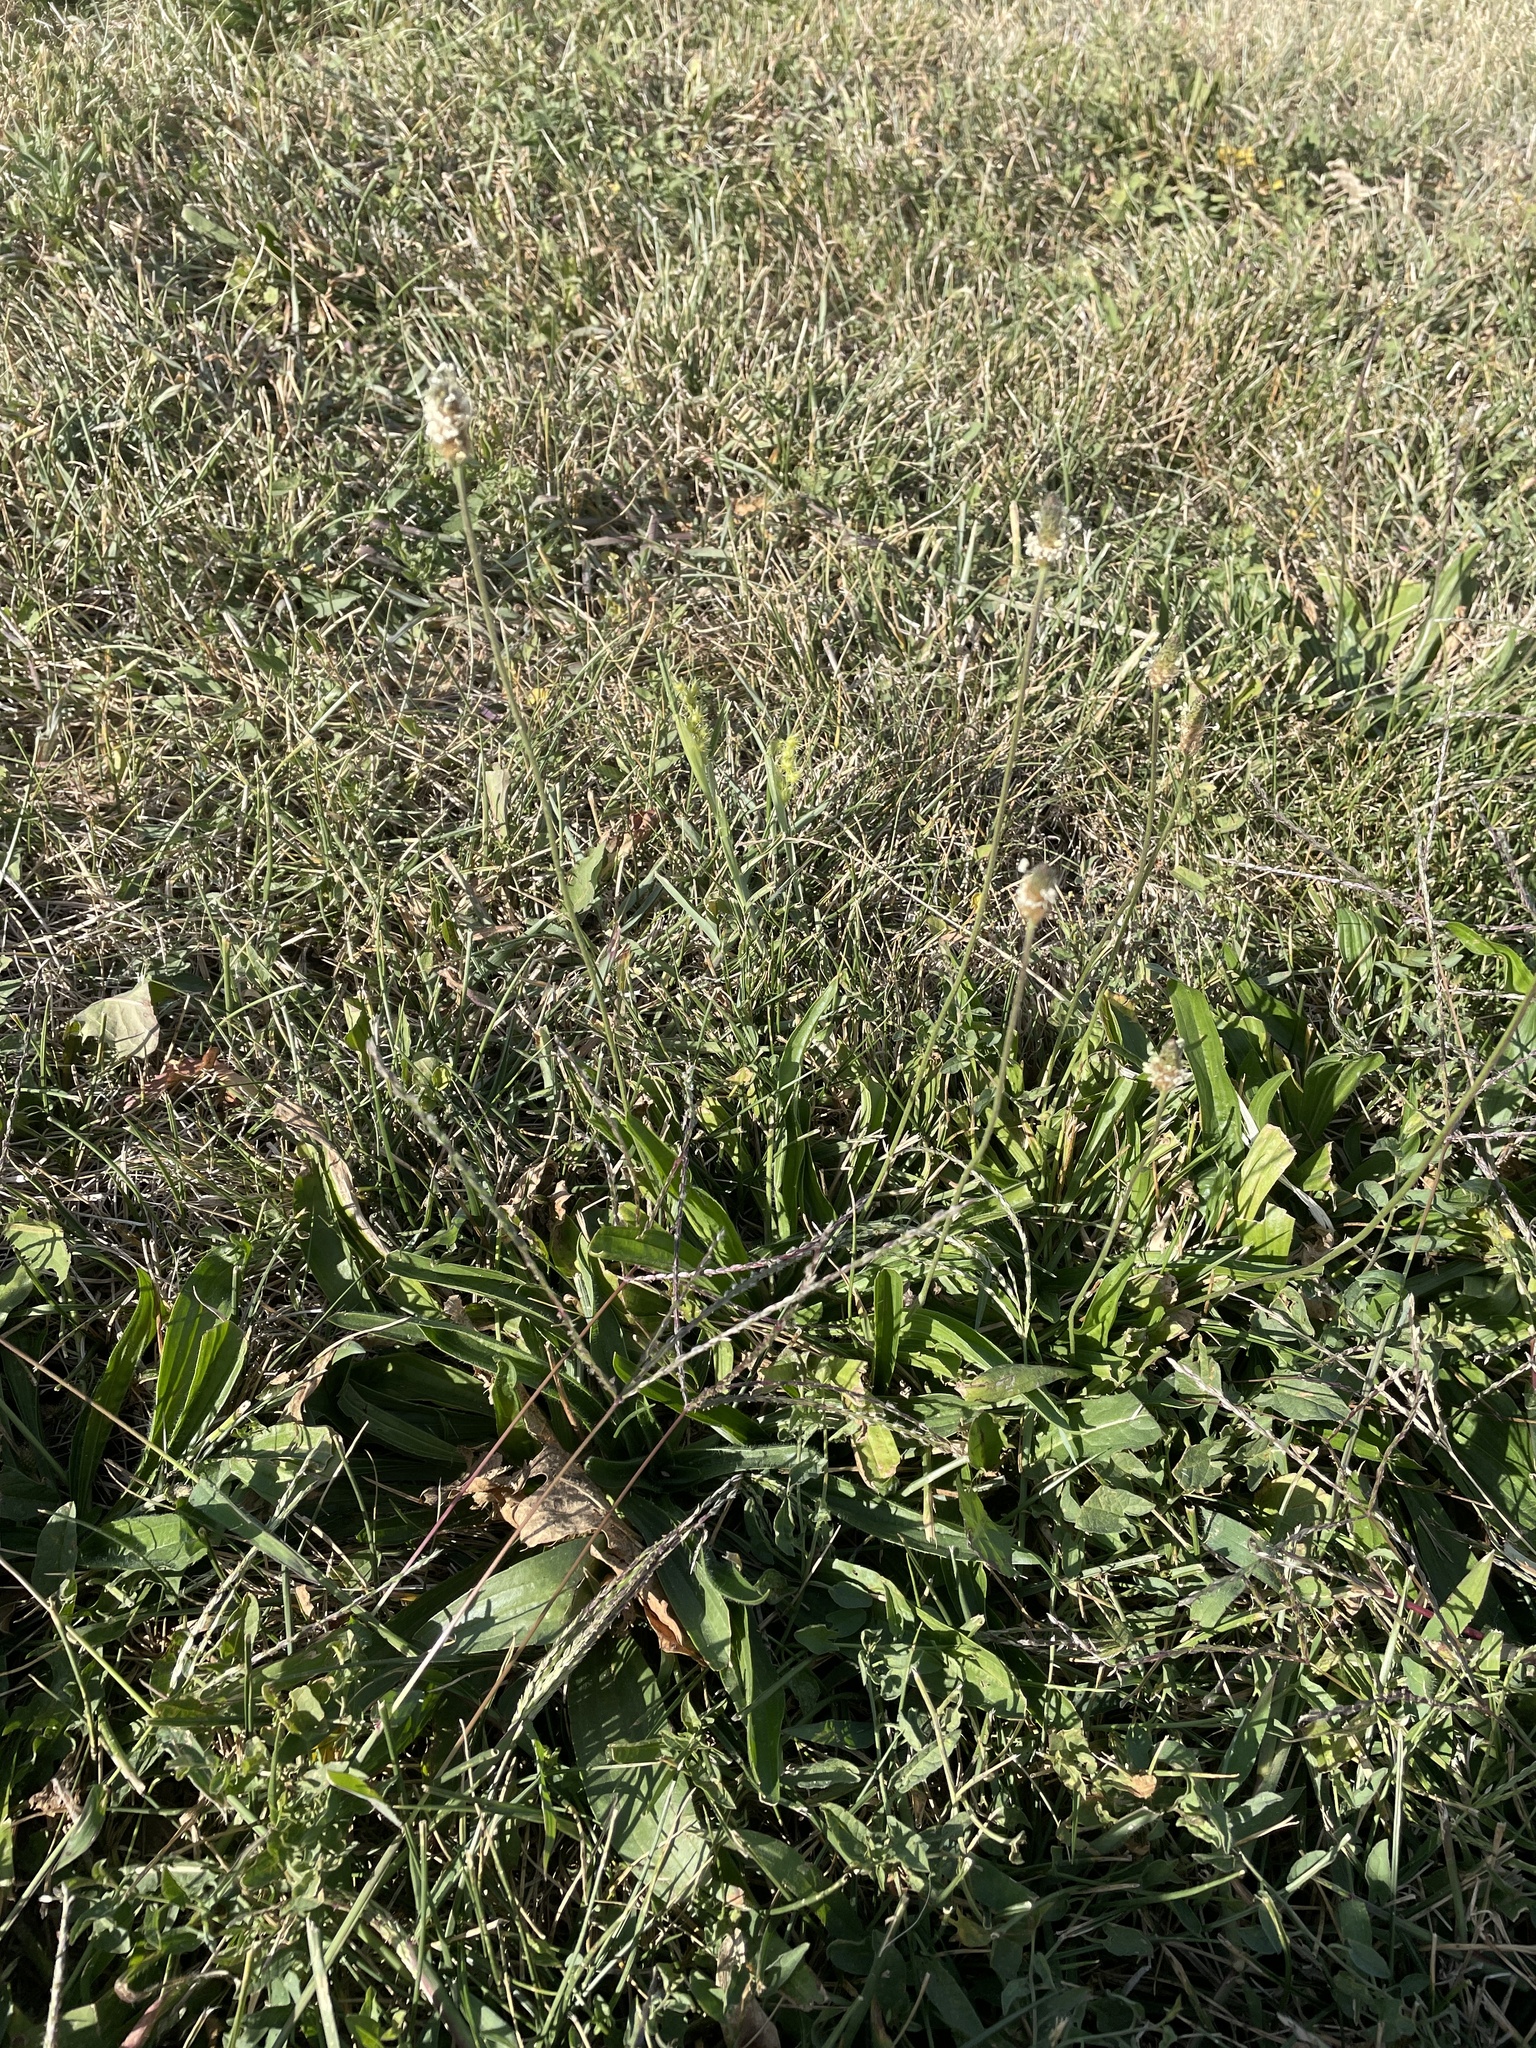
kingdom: Plantae
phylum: Tracheophyta
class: Magnoliopsida
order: Lamiales
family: Plantaginaceae
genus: Plantago
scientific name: Plantago lanceolata
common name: Ribwort plantain
